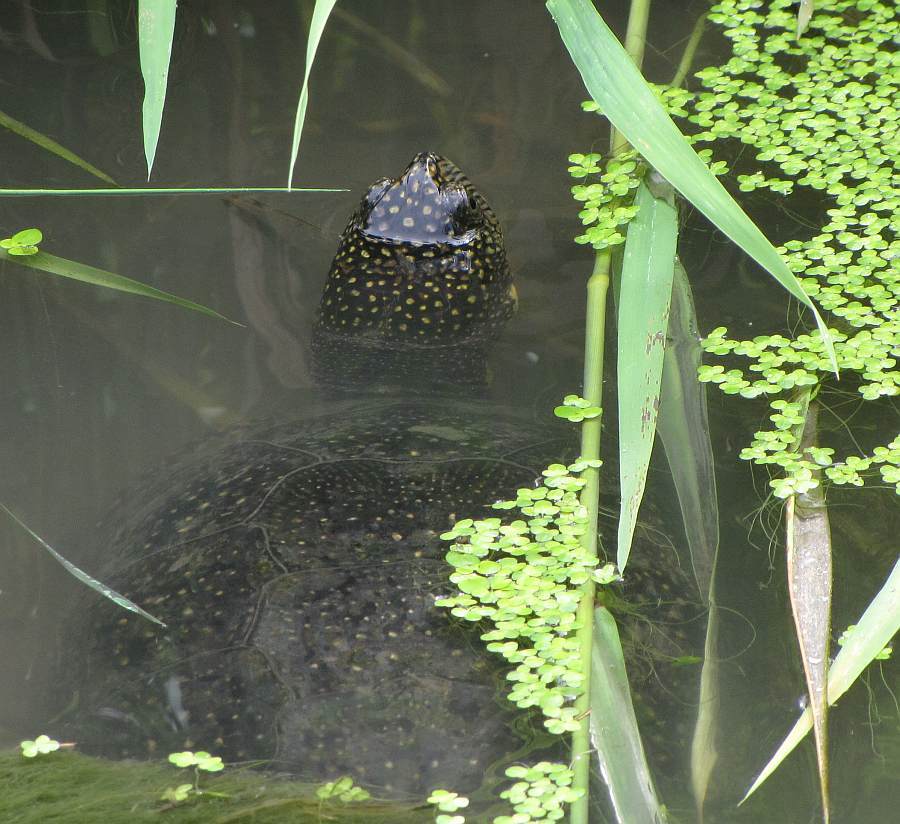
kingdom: Animalia
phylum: Chordata
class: Testudines
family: Emydidae
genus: Emys
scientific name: Emys blandingii
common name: Blanding's turtle
